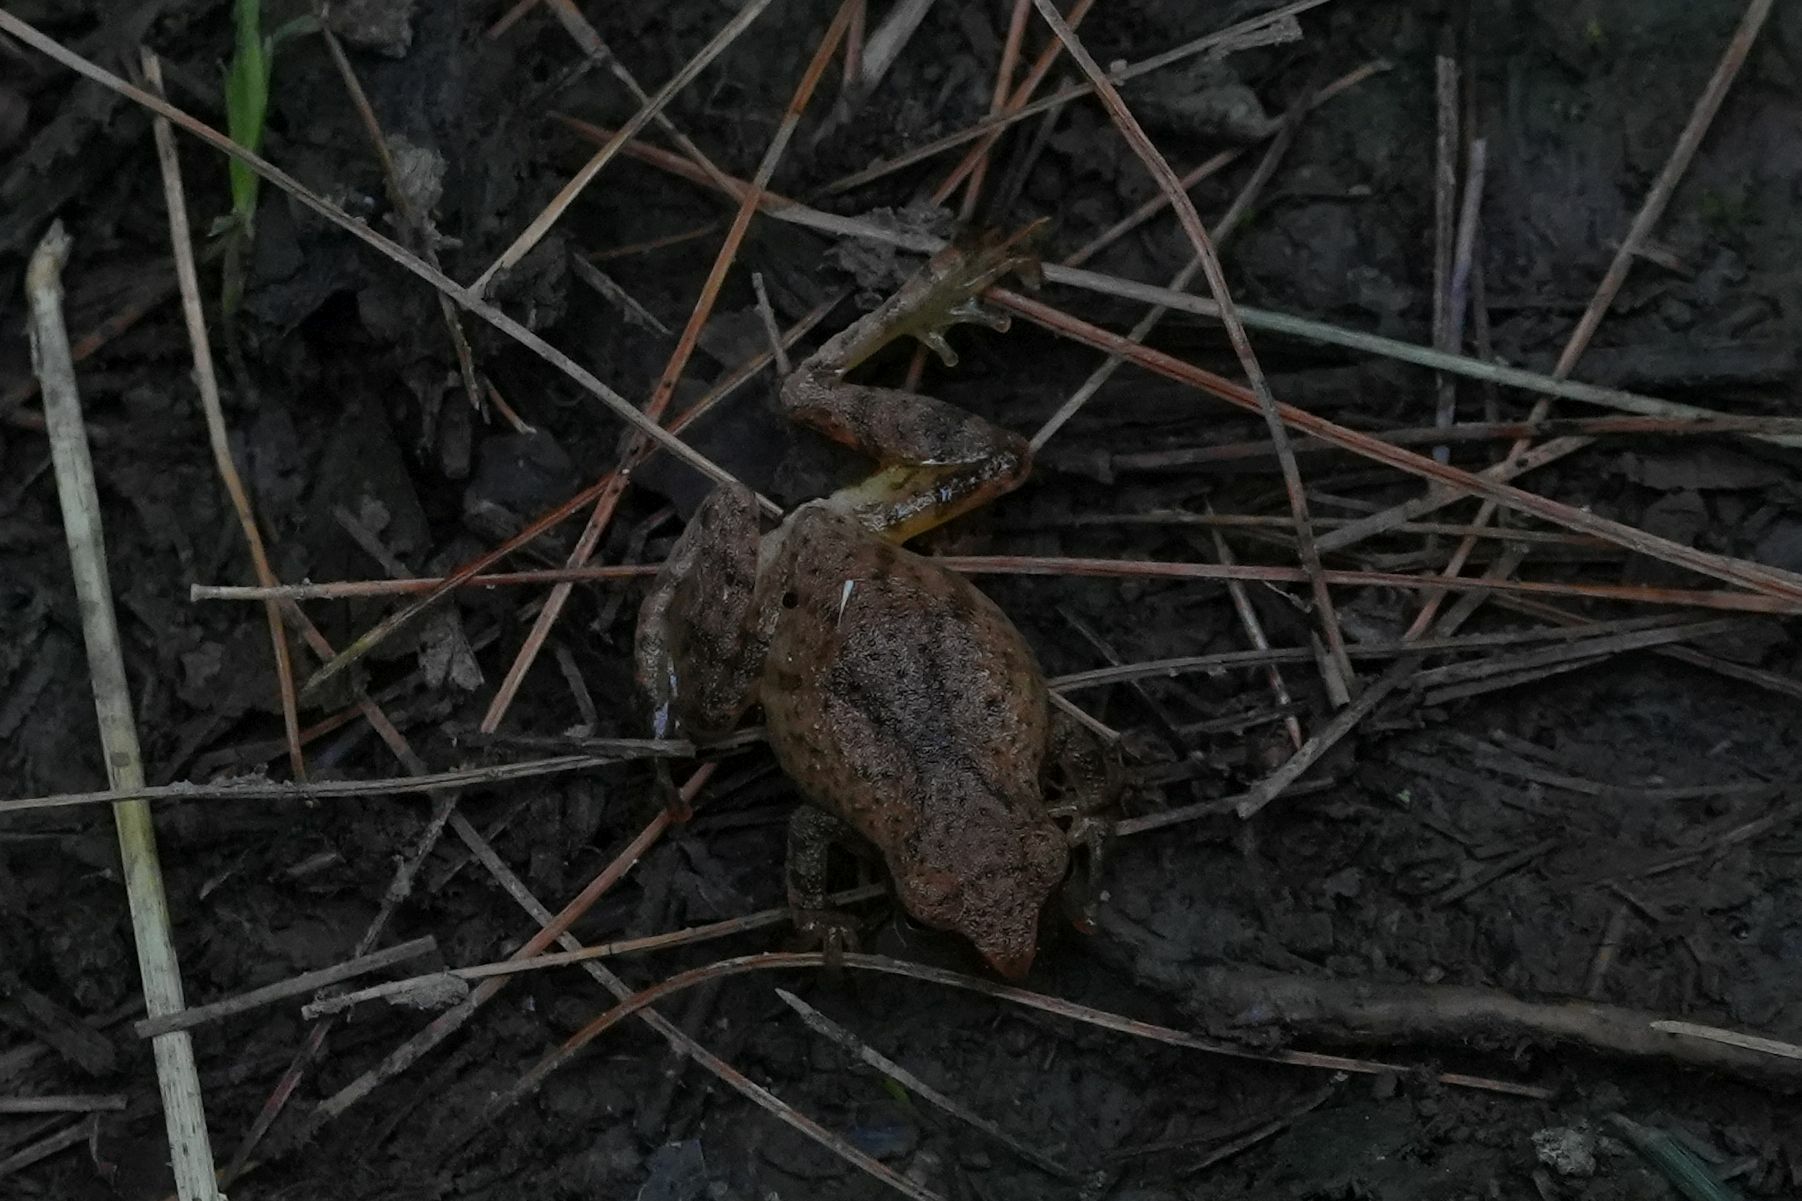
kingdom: Animalia
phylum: Chordata
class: Amphibia
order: Anura
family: Hylidae
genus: Pseudacris
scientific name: Pseudacris crucifer
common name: Spring peeper
